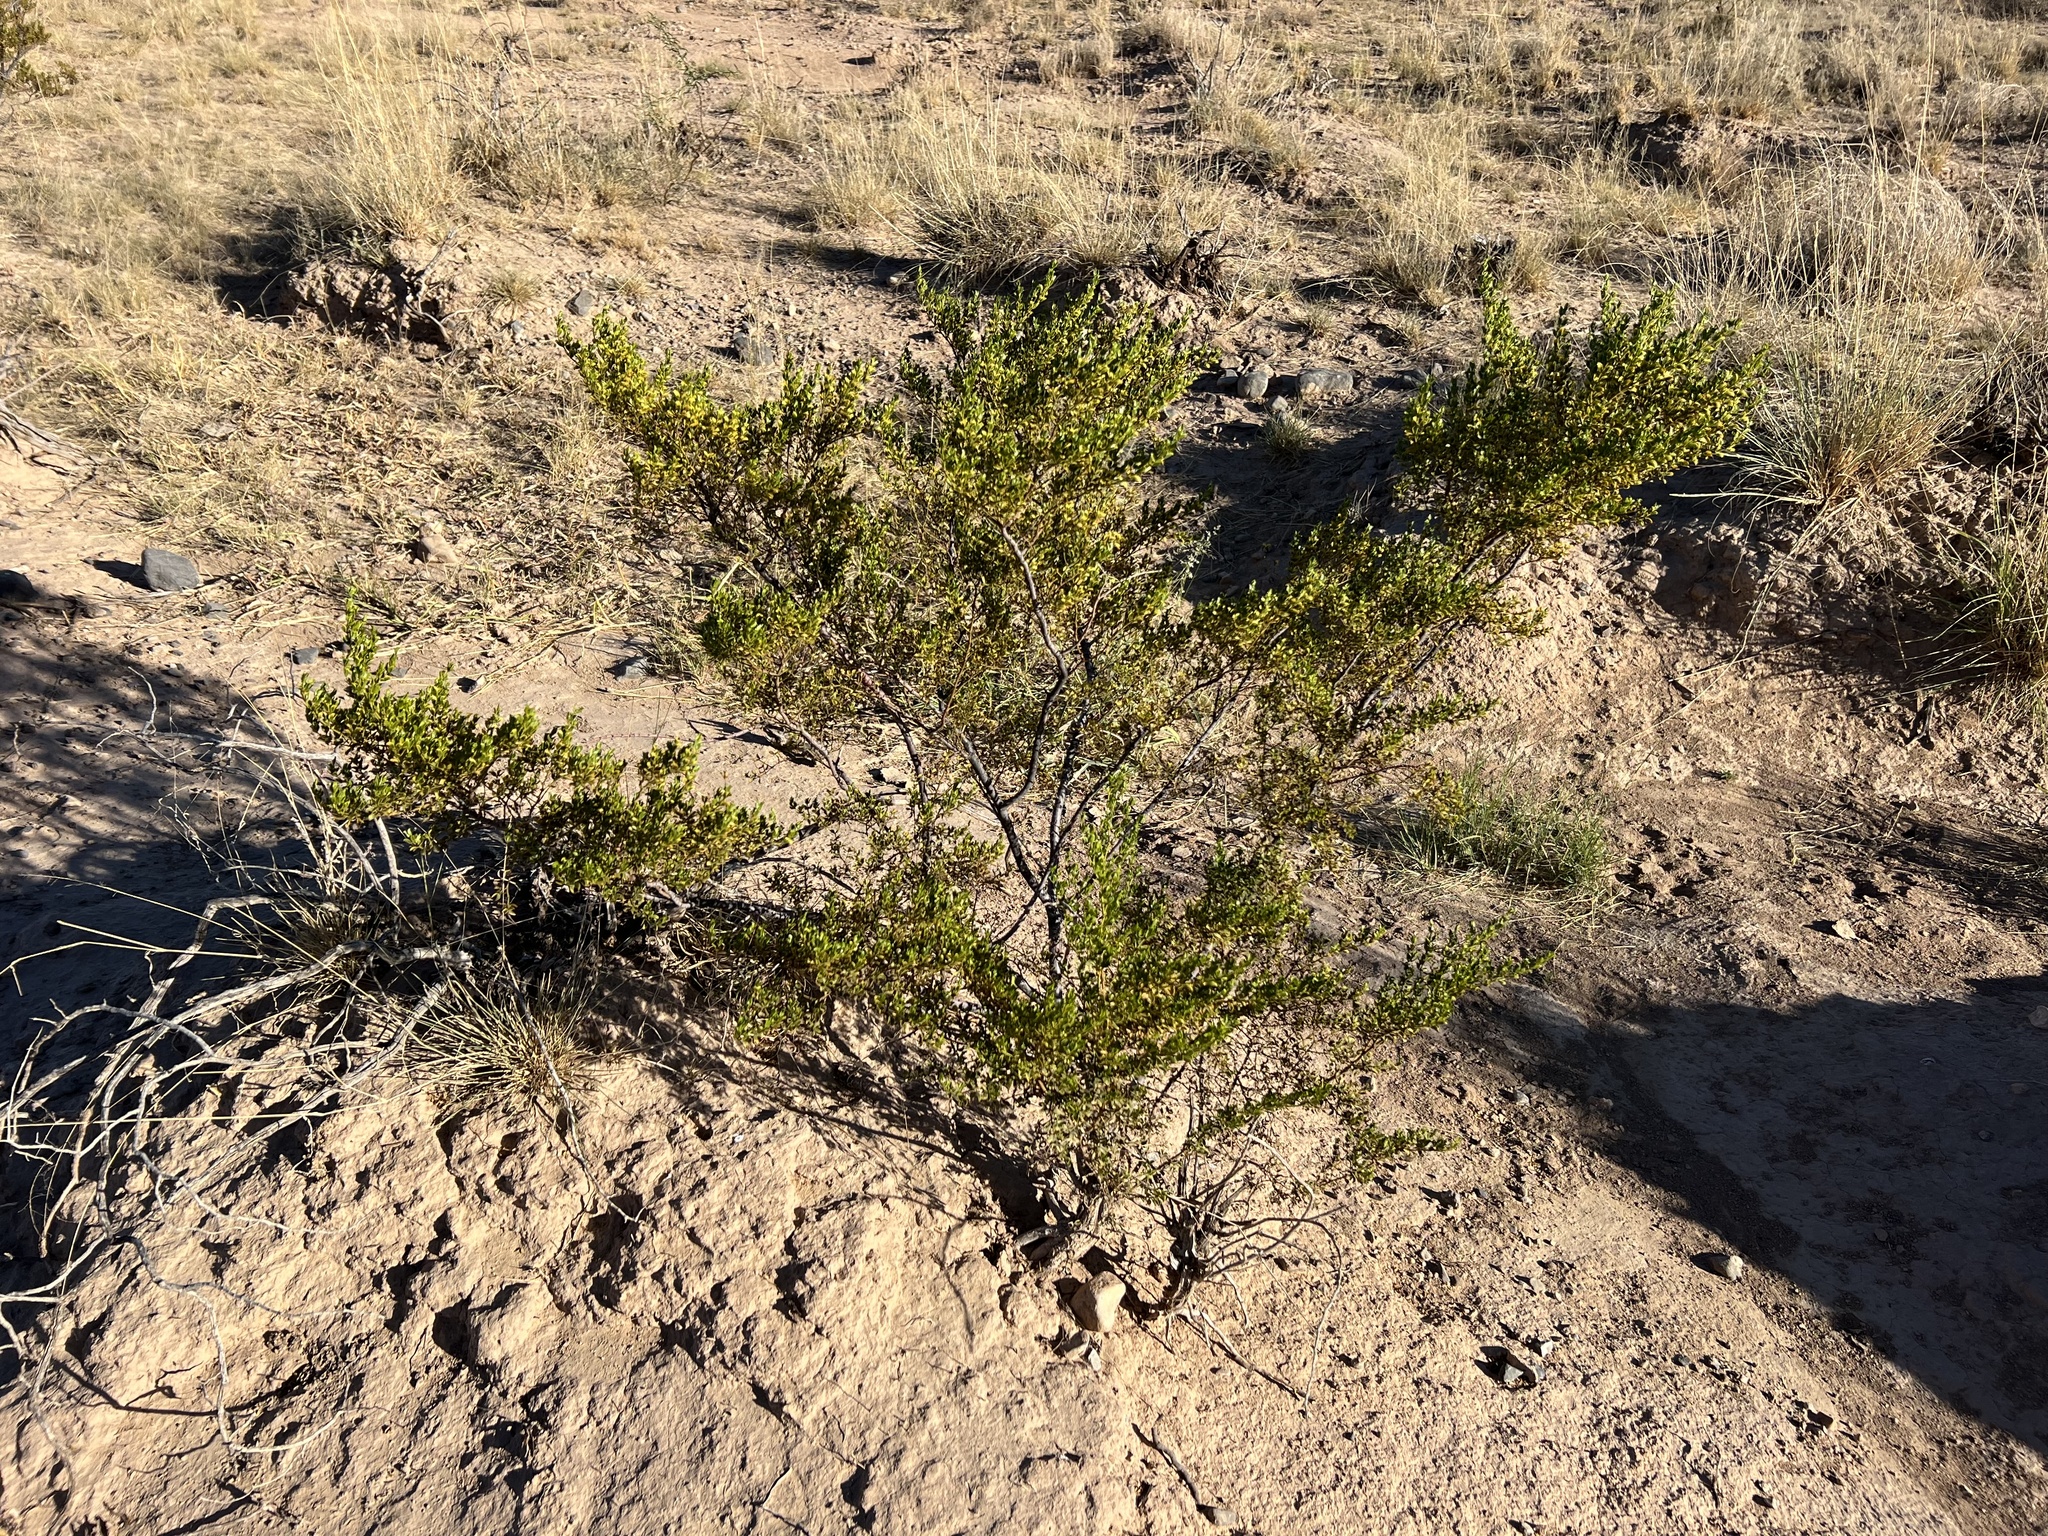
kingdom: Plantae
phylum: Tracheophyta
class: Magnoliopsida
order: Zygophyllales
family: Zygophyllaceae
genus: Larrea
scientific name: Larrea tridentata
